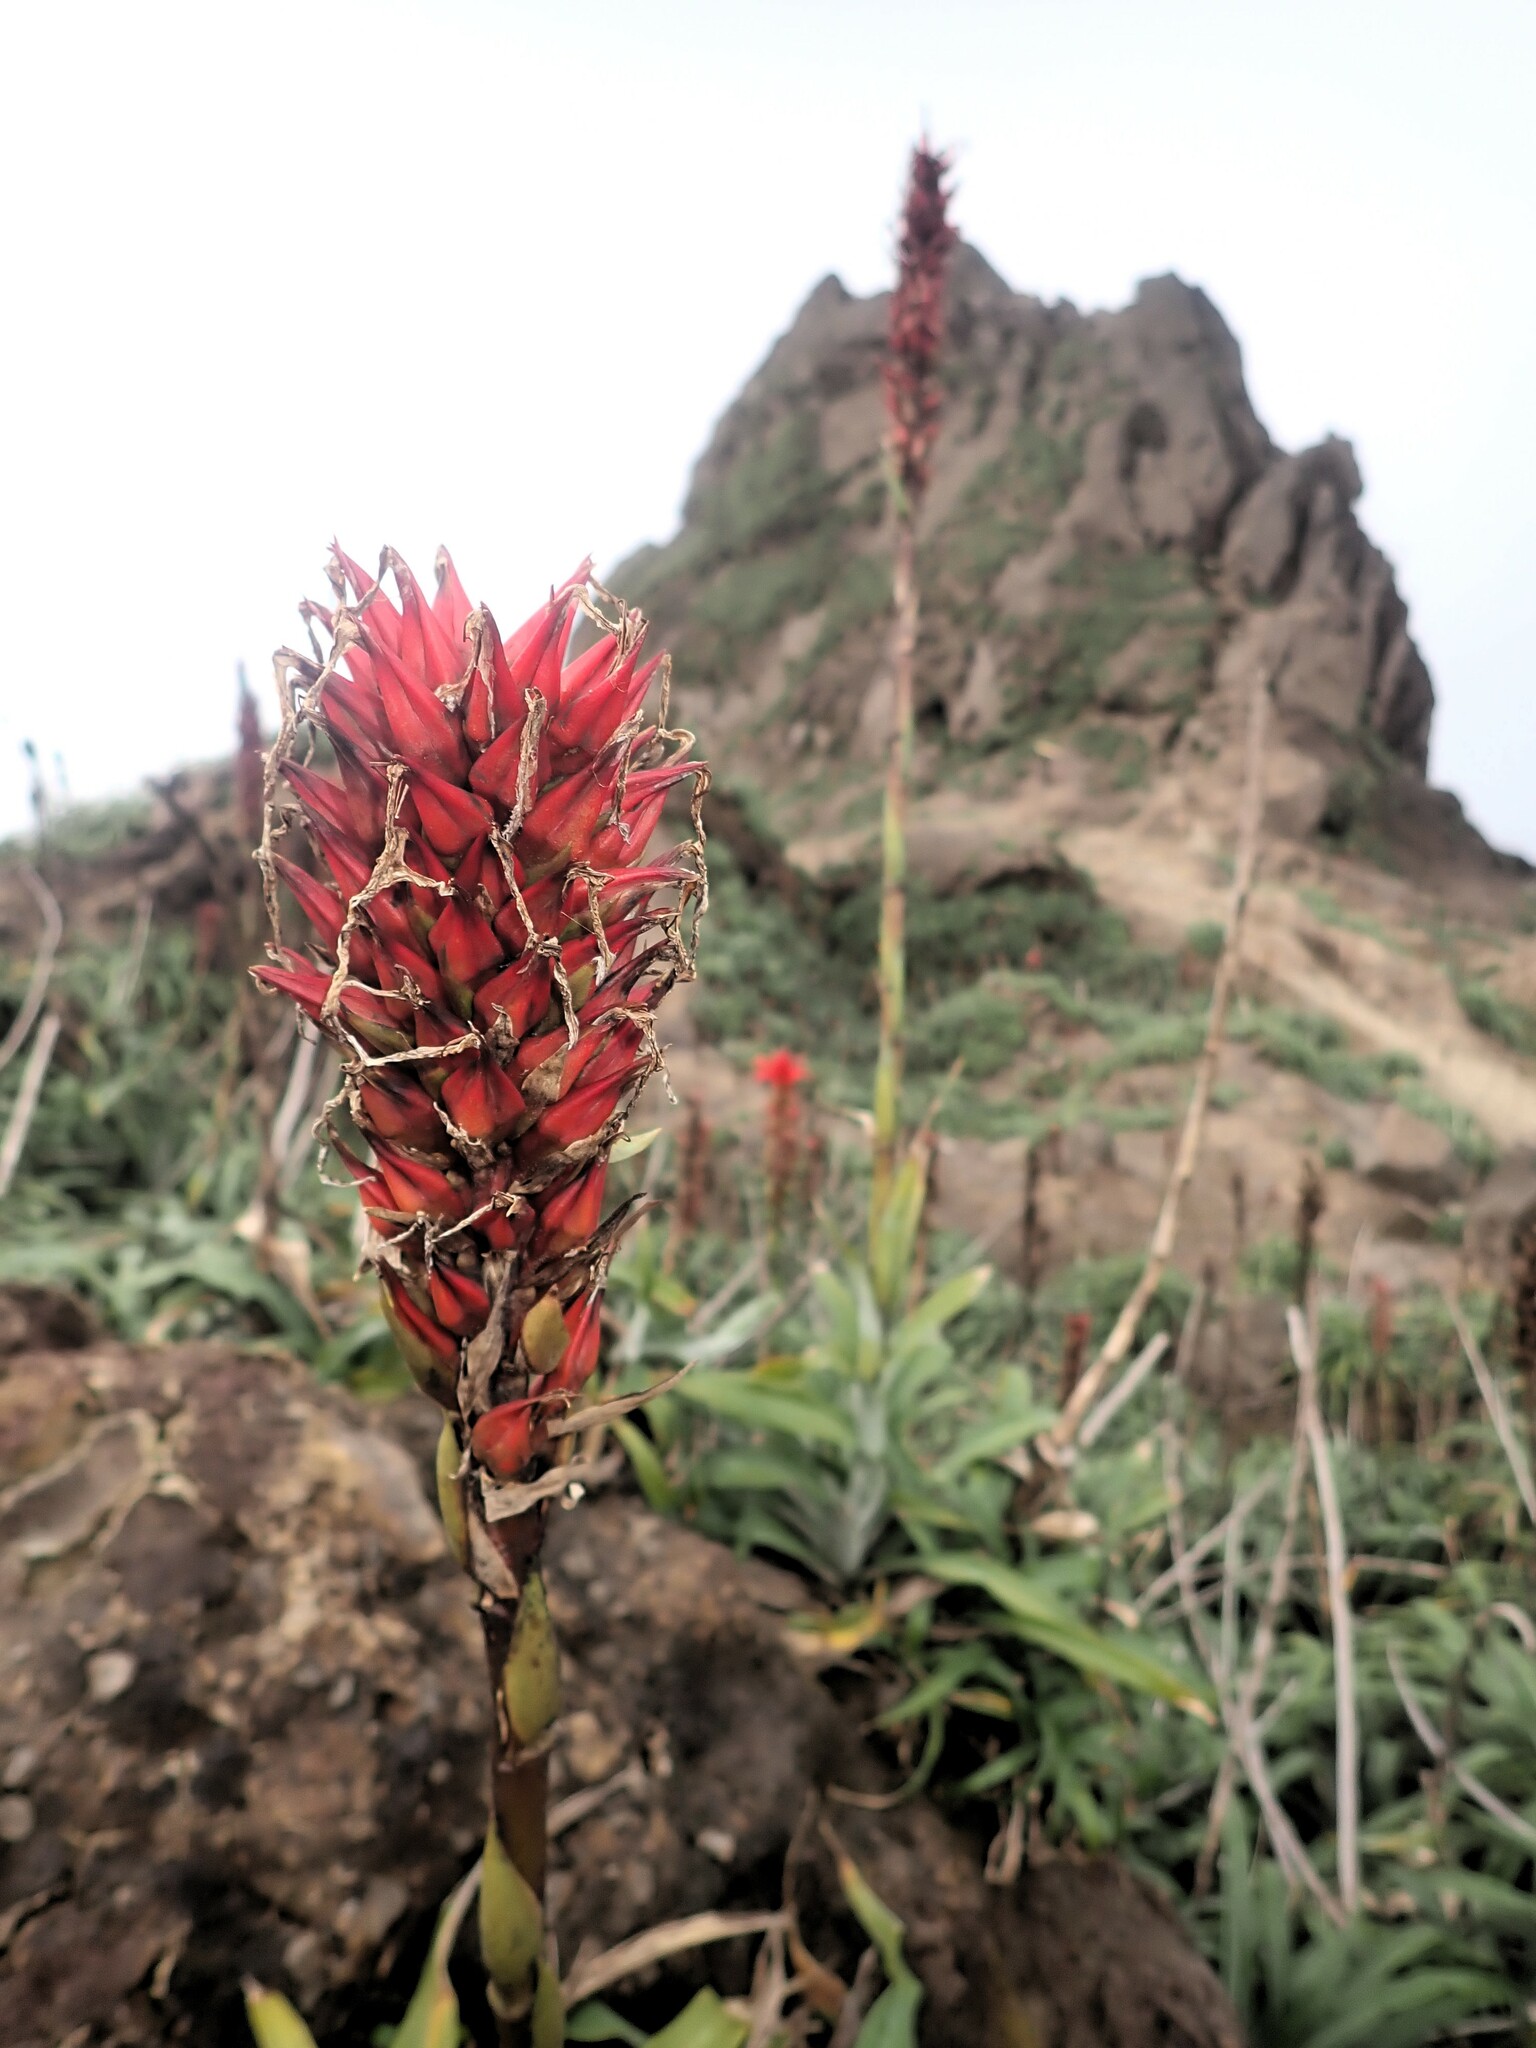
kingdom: Plantae
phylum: Tracheophyta
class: Liliopsida
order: Poales
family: Bromeliaceae
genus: Pitcairnia
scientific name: Pitcairnia bifrons
